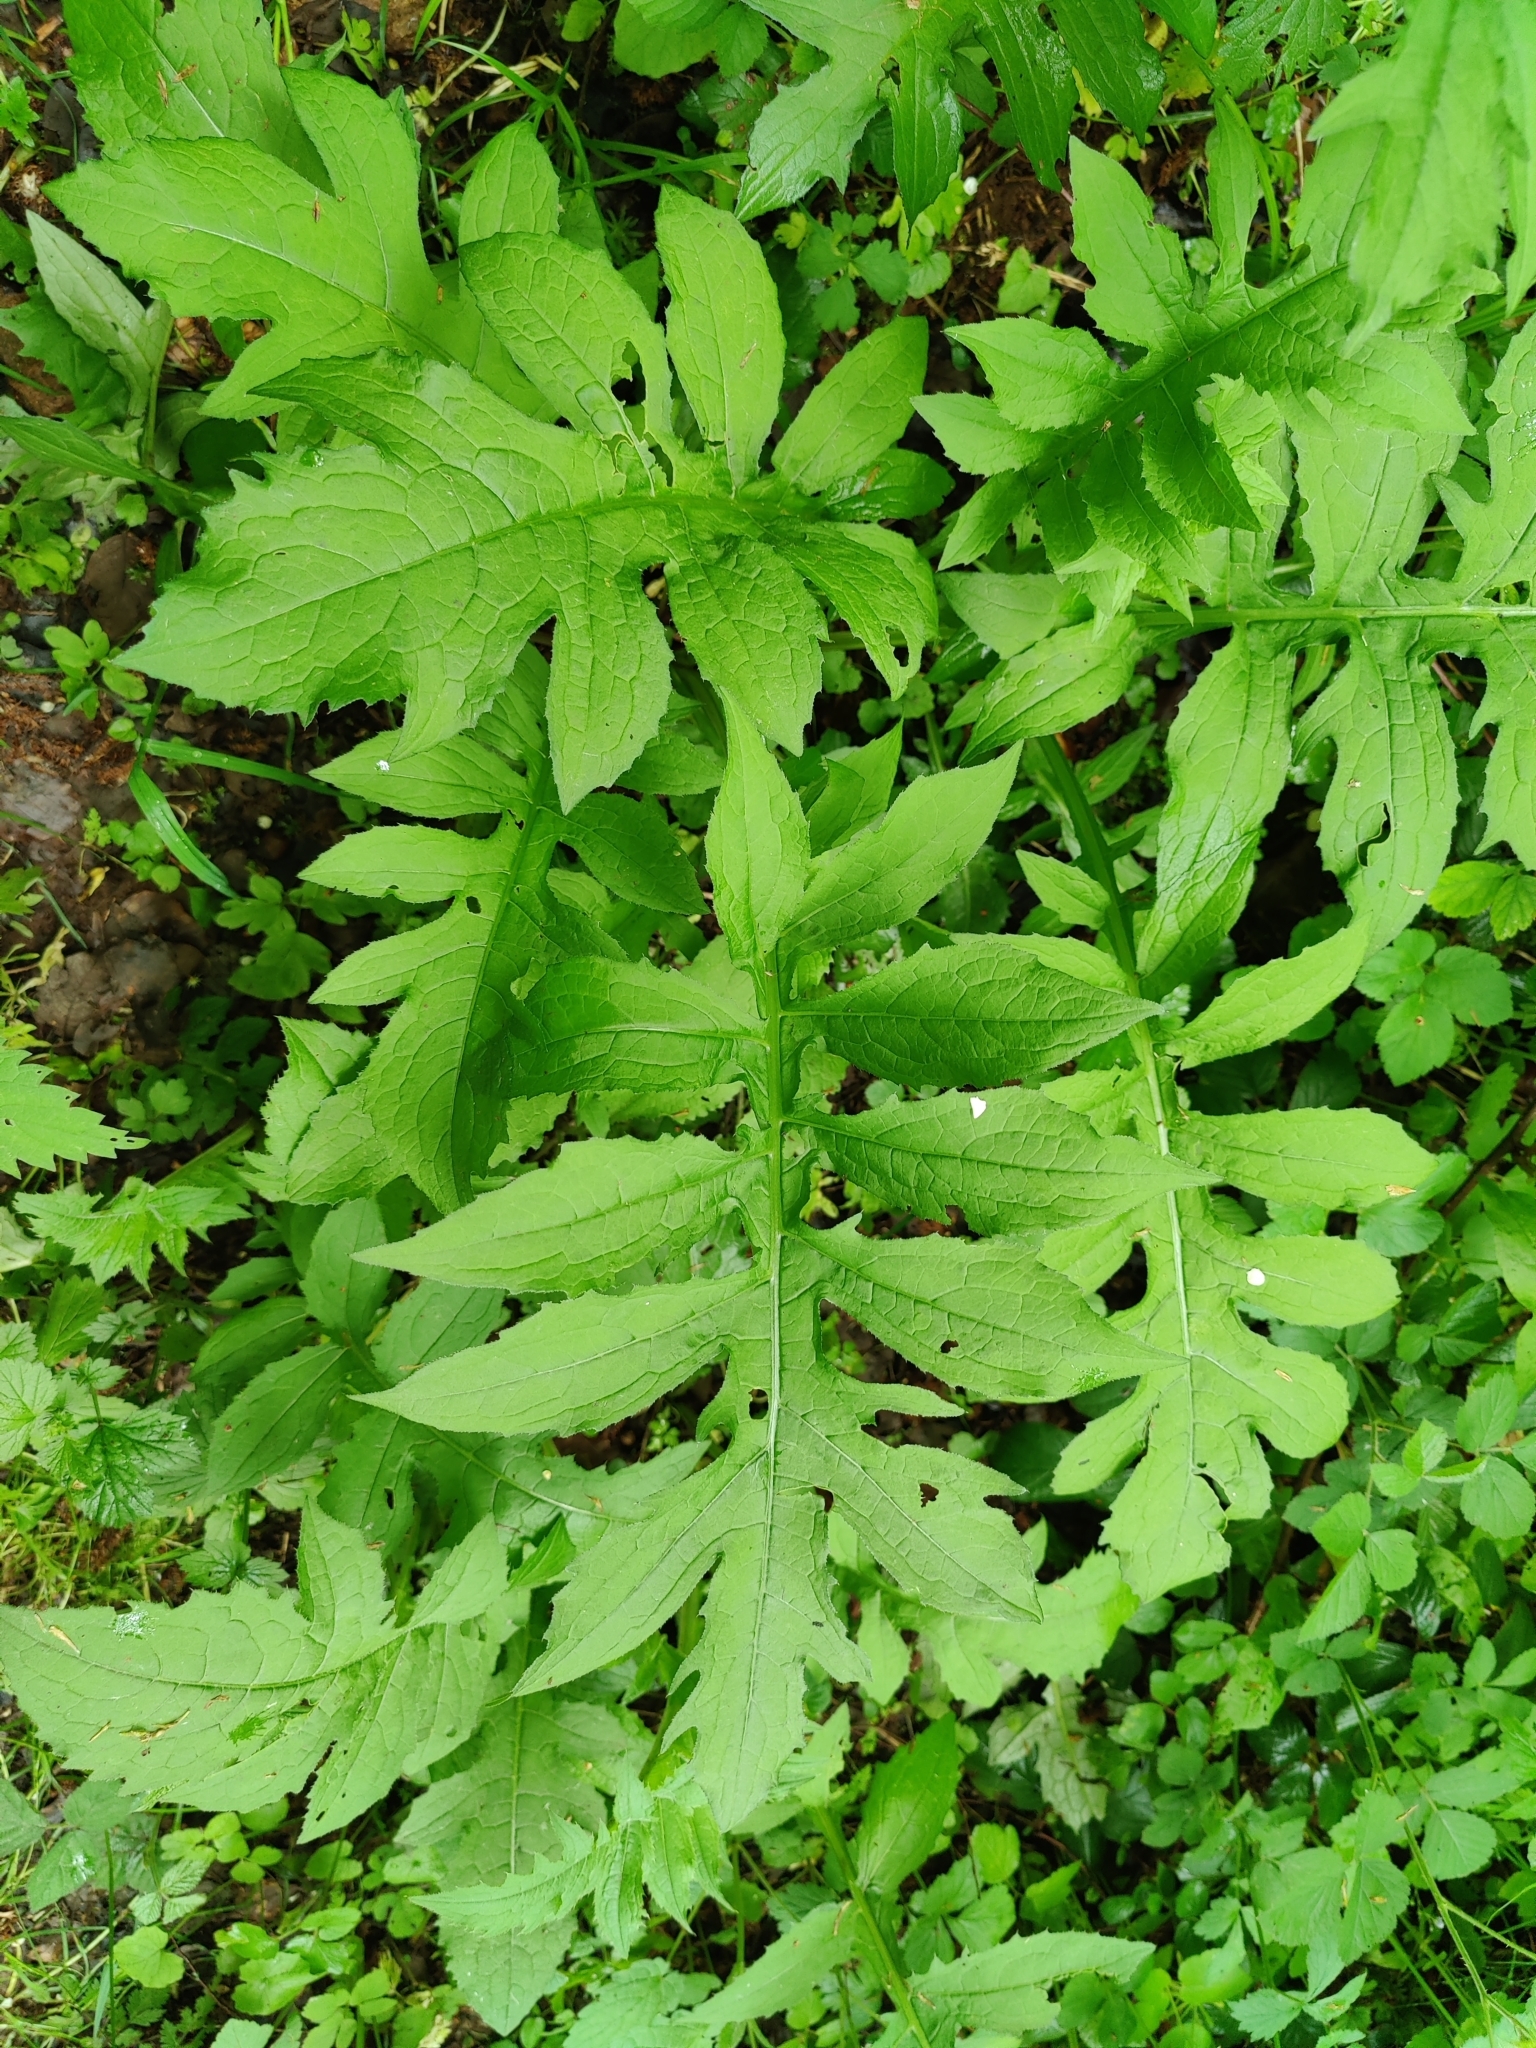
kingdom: Plantae
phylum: Tracheophyta
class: Magnoliopsida
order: Asterales
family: Asteraceae
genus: Cirsium
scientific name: Cirsium oleraceum
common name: Cabbage thistle
